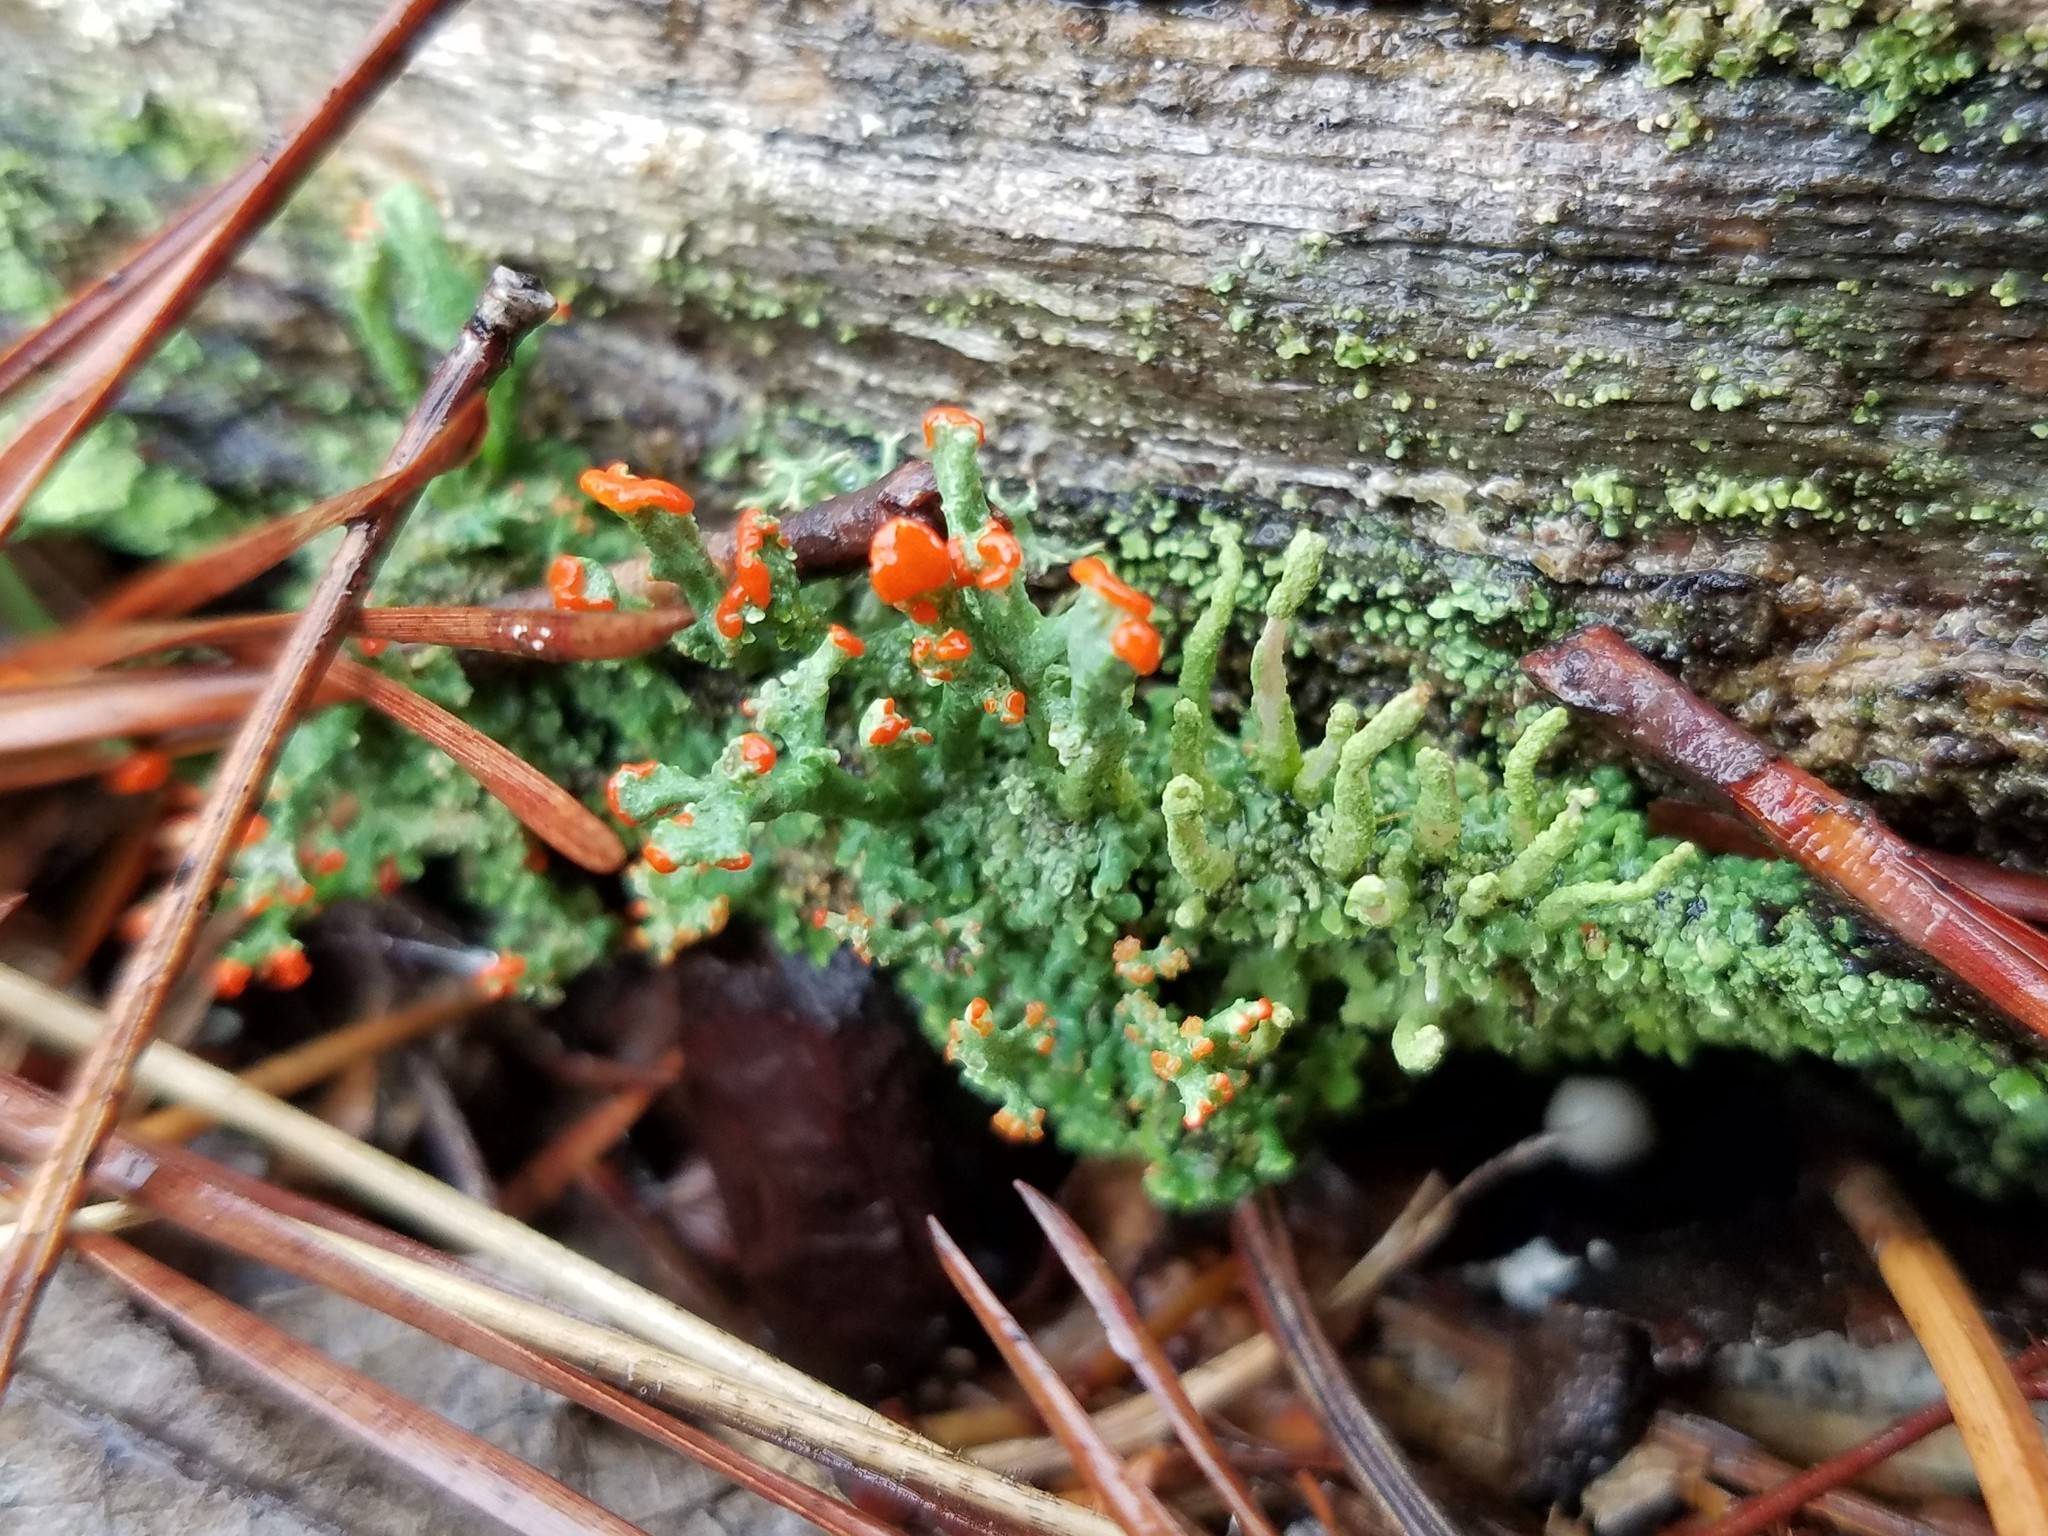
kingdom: Fungi
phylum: Ascomycota
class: Lecanoromycetes
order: Lecanorales
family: Cladoniaceae
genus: Cladonia
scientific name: Cladonia cristatella
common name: British soldier lichen
